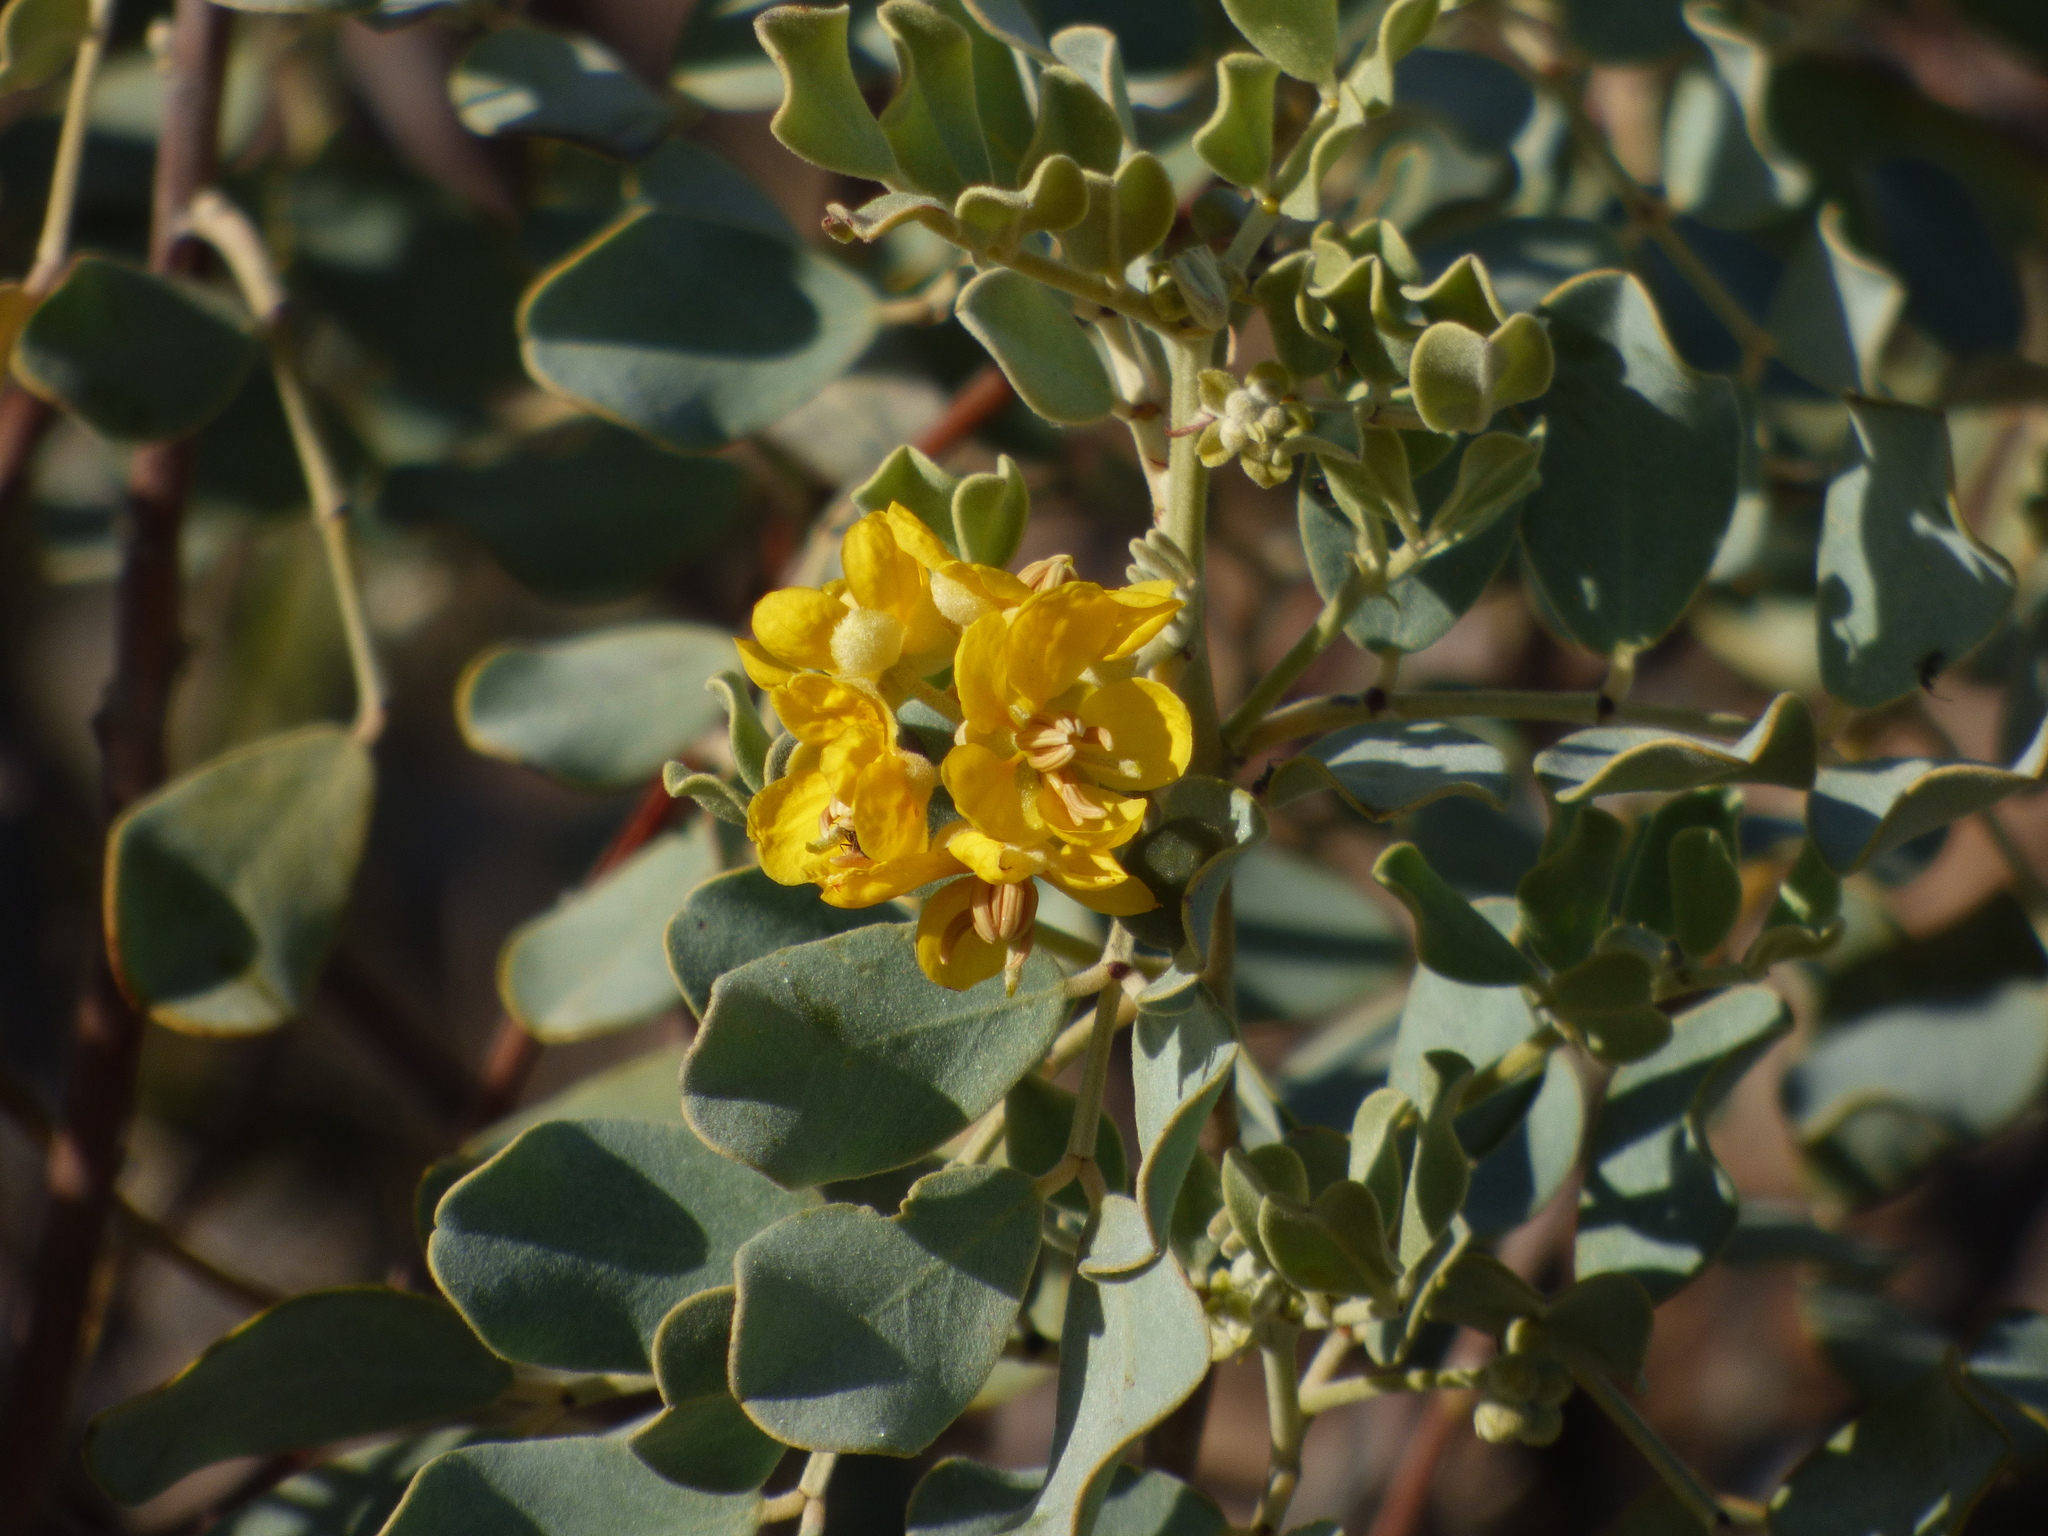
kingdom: Plantae
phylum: Tracheophyta
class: Magnoliopsida
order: Fabales
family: Fabaceae
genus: Senna
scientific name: Senna artemisioides
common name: Burnt-leaved acacia
